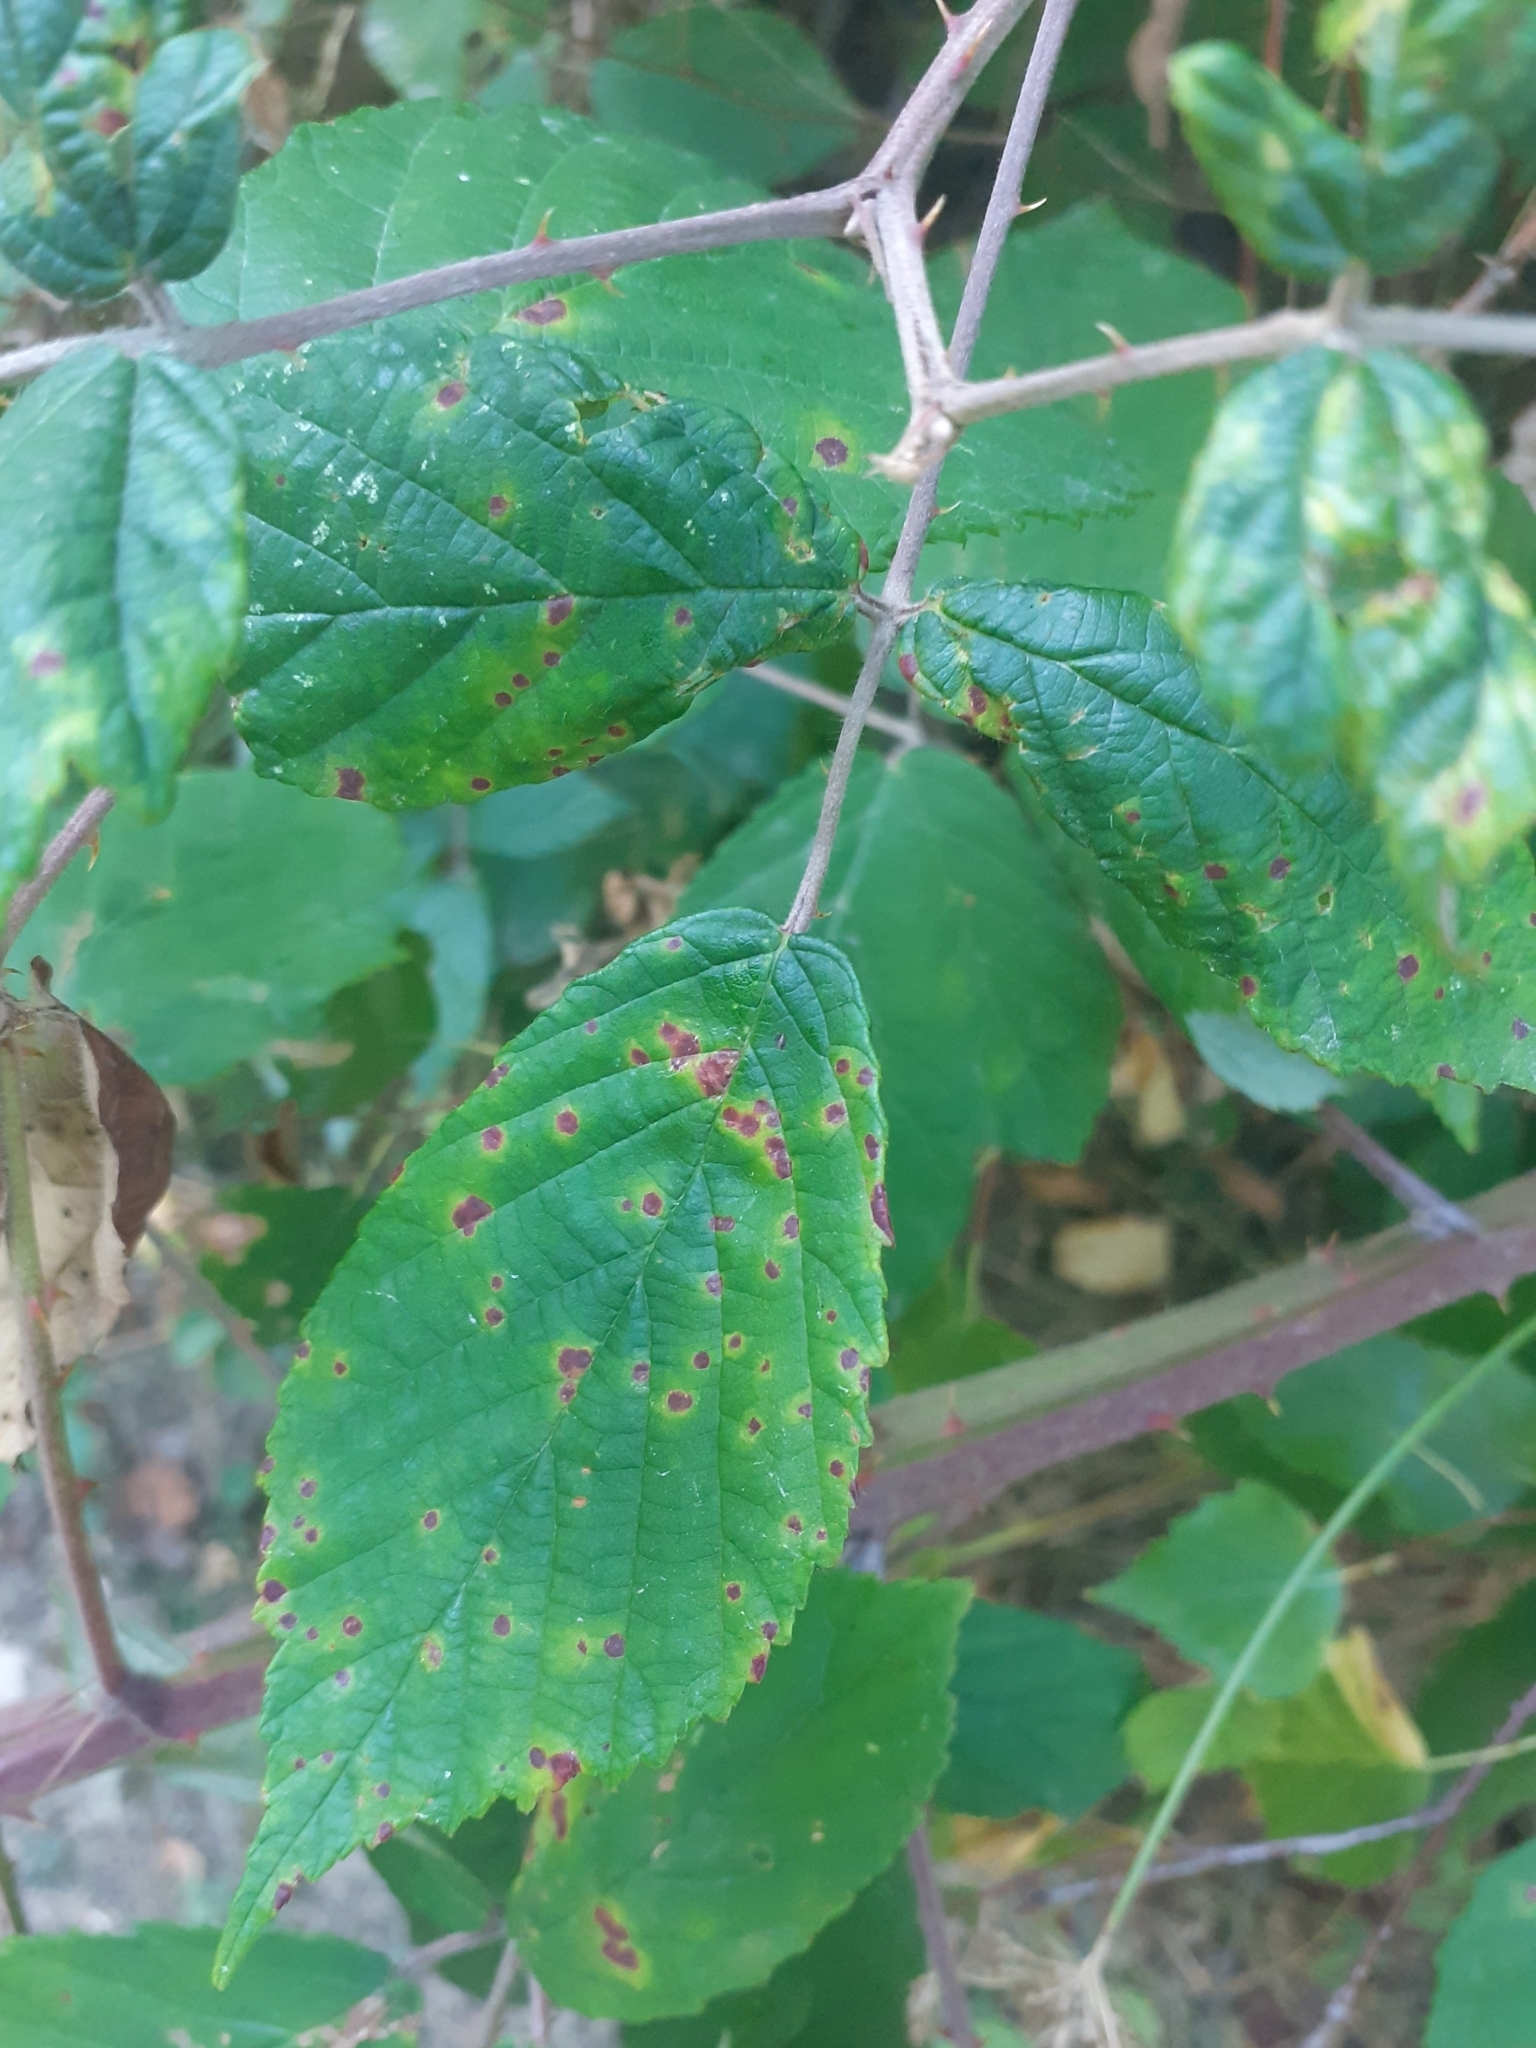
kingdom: Fungi
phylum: Basidiomycota
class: Pucciniomycetes
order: Pucciniales
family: Phragmidiaceae
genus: Phragmidium
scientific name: Phragmidium violaceum
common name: Violet bramble rust
